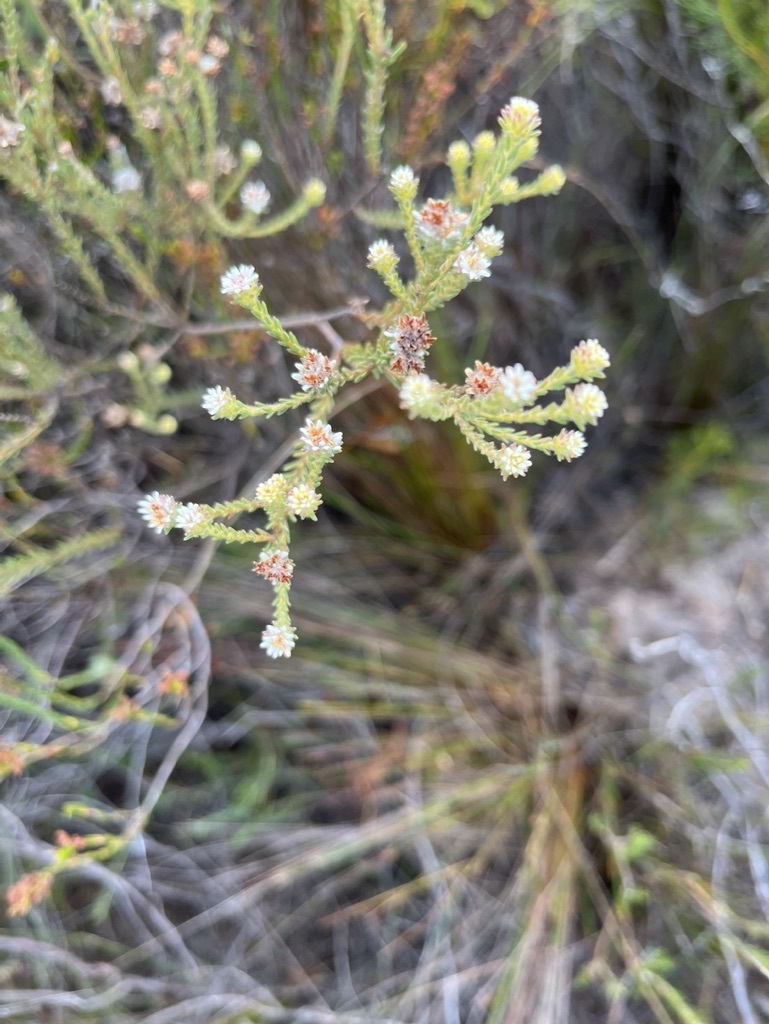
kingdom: Plantae
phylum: Tracheophyta
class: Magnoliopsida
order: Bruniales
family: Bruniaceae
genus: Staavia
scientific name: Staavia radiata
